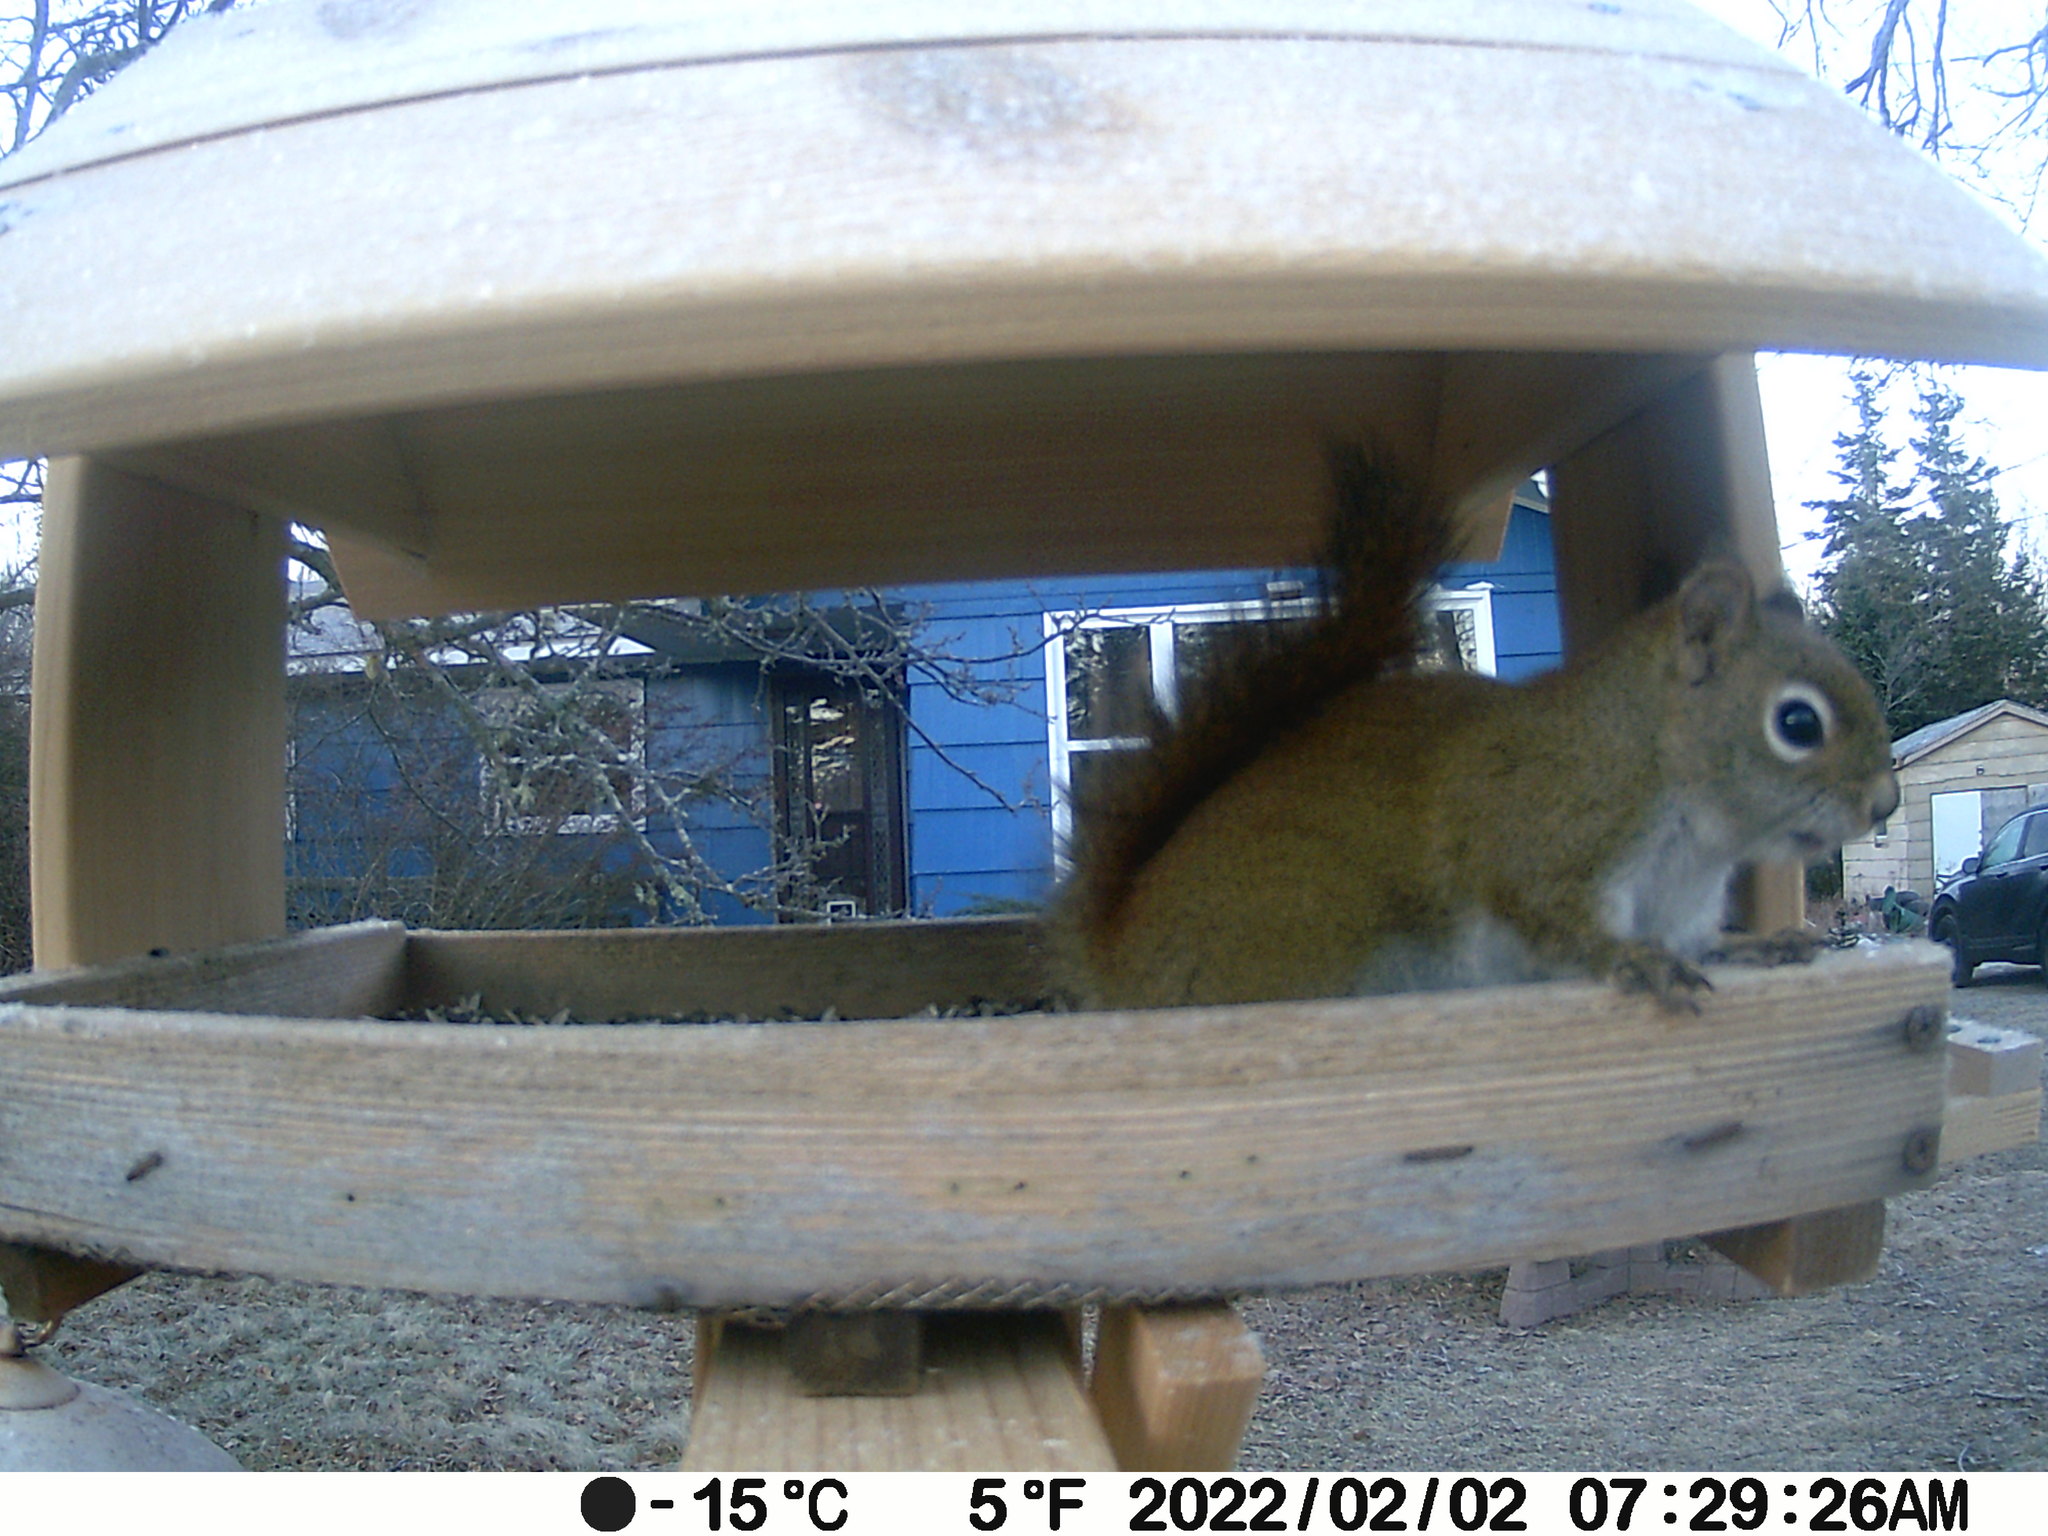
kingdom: Animalia
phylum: Chordata
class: Mammalia
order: Rodentia
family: Sciuridae
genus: Tamiasciurus
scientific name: Tamiasciurus hudsonicus
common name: Red squirrel
